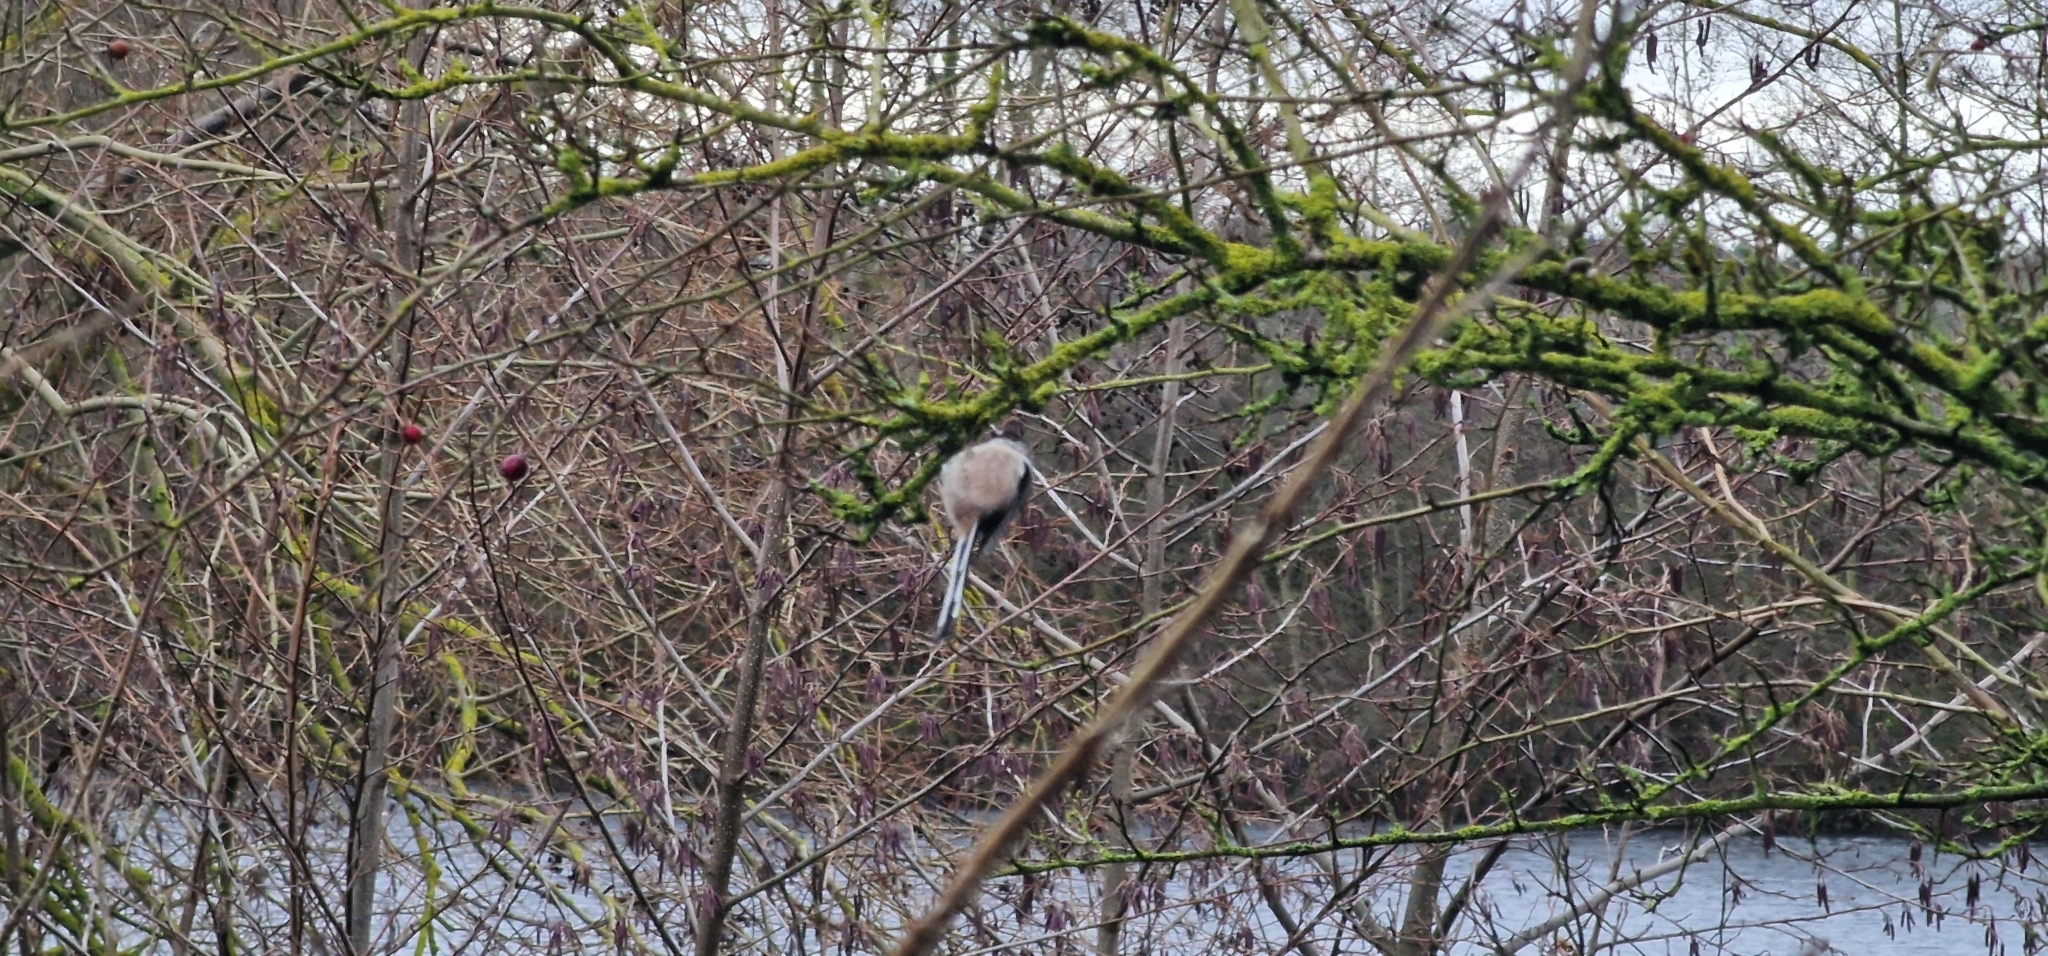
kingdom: Animalia
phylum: Chordata
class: Aves
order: Passeriformes
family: Aegithalidae
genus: Aegithalos
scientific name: Aegithalos caudatus
